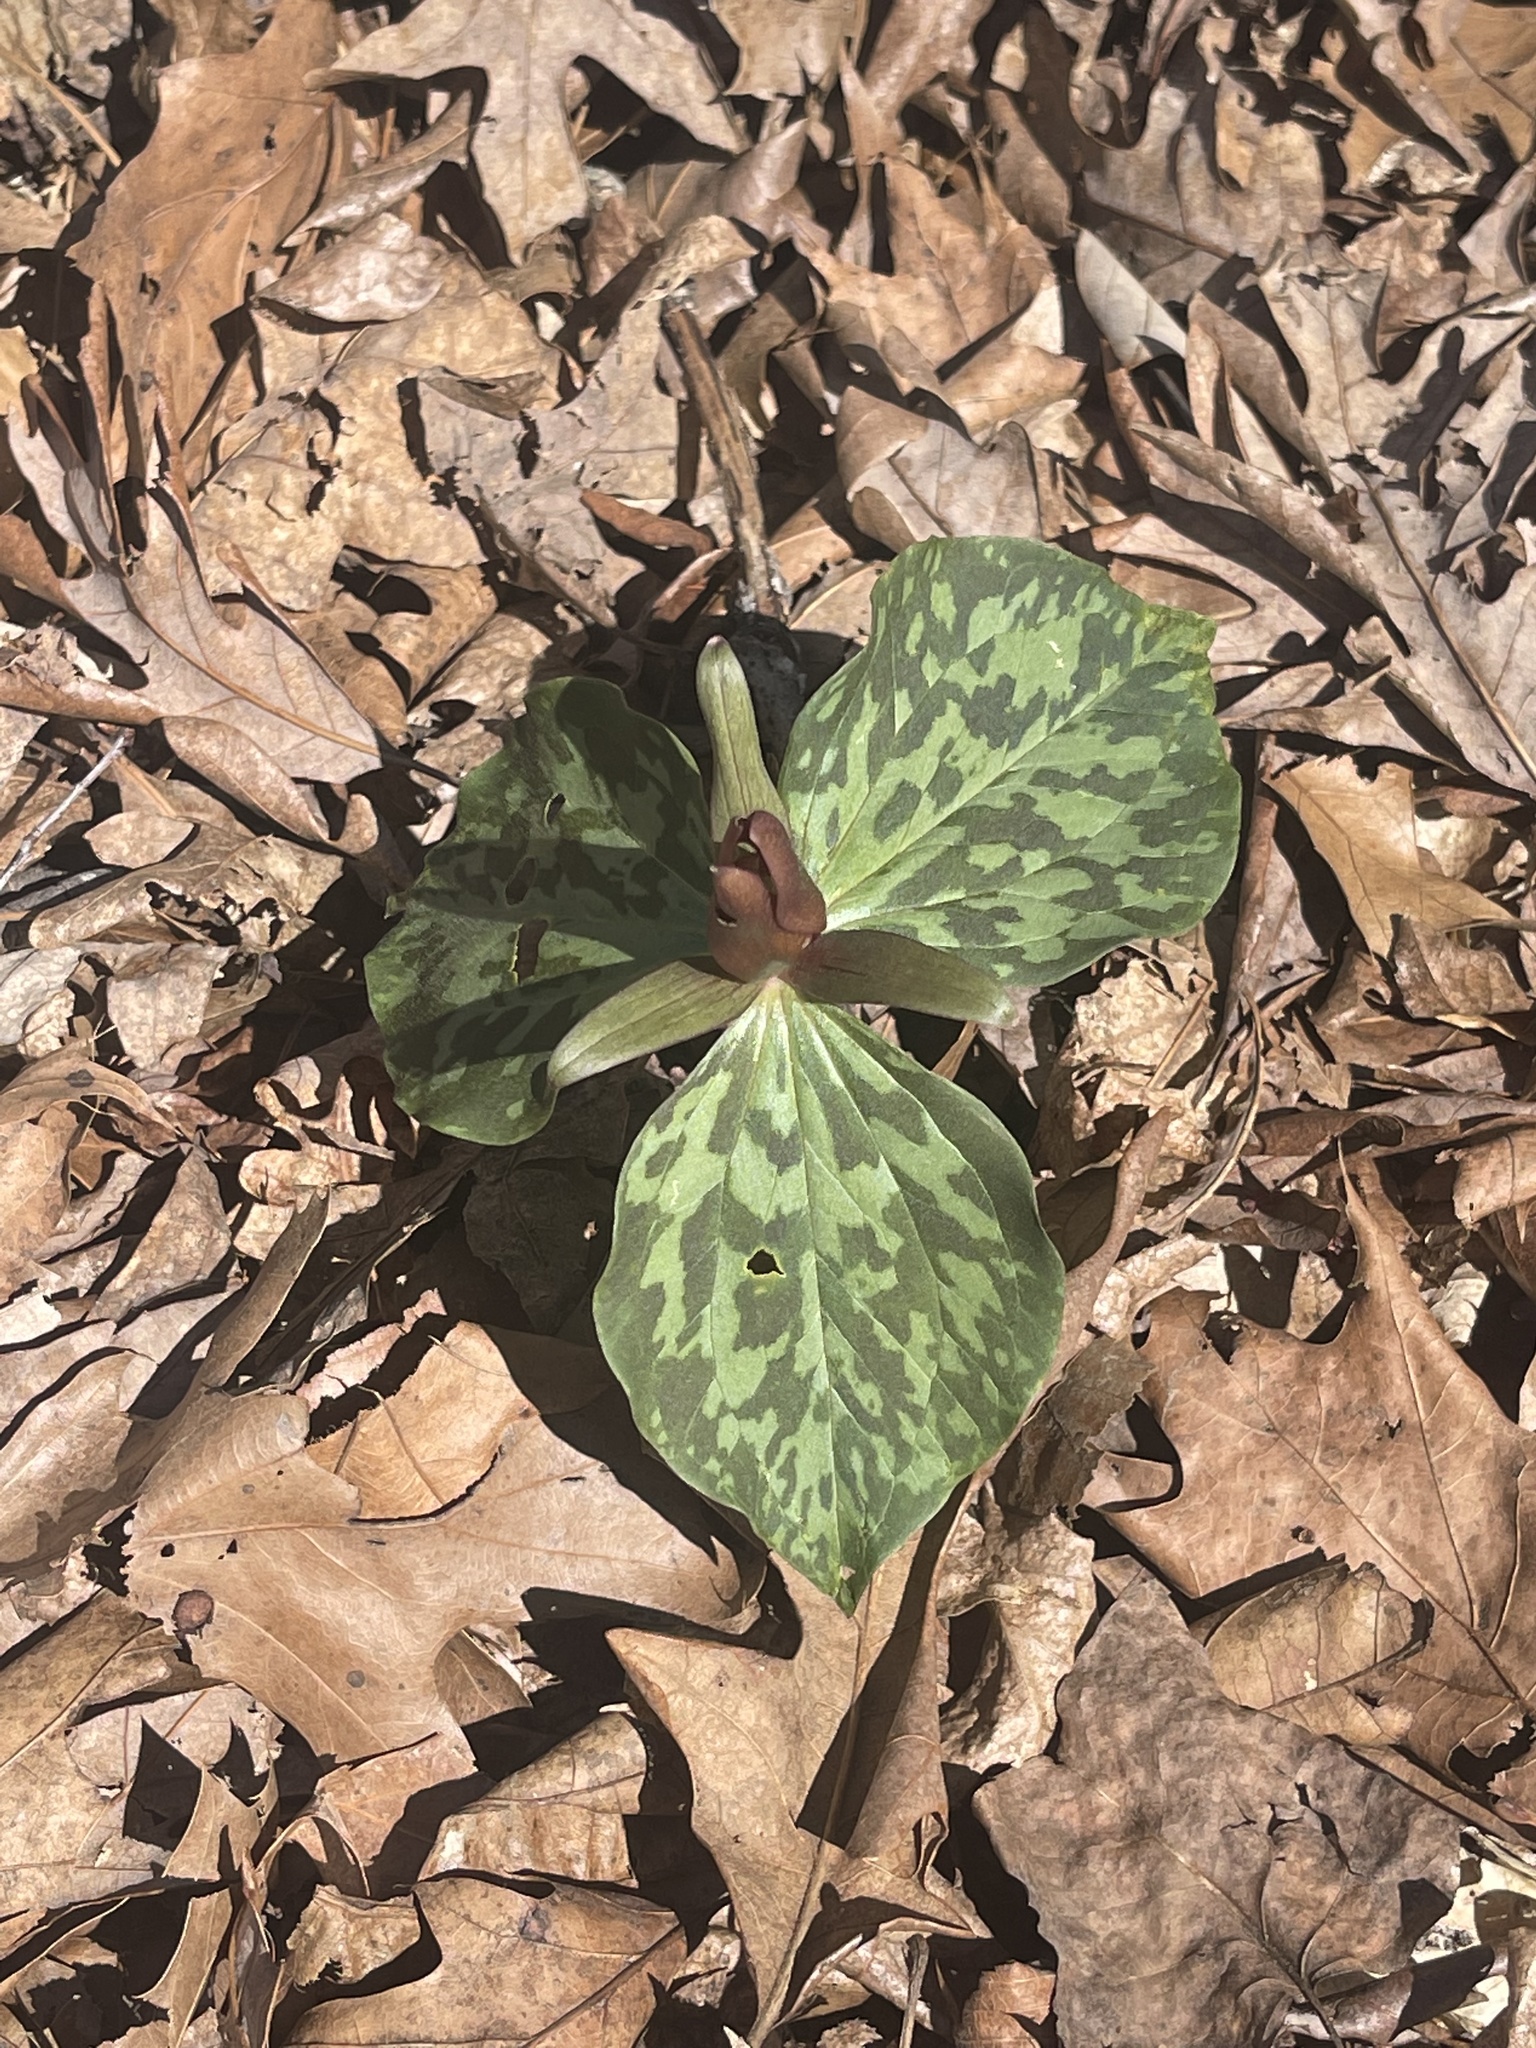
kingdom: Plantae
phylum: Tracheophyta
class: Liliopsida
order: Liliales
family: Melanthiaceae
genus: Trillium
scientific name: Trillium cuneatum
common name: Cuneate trillium
